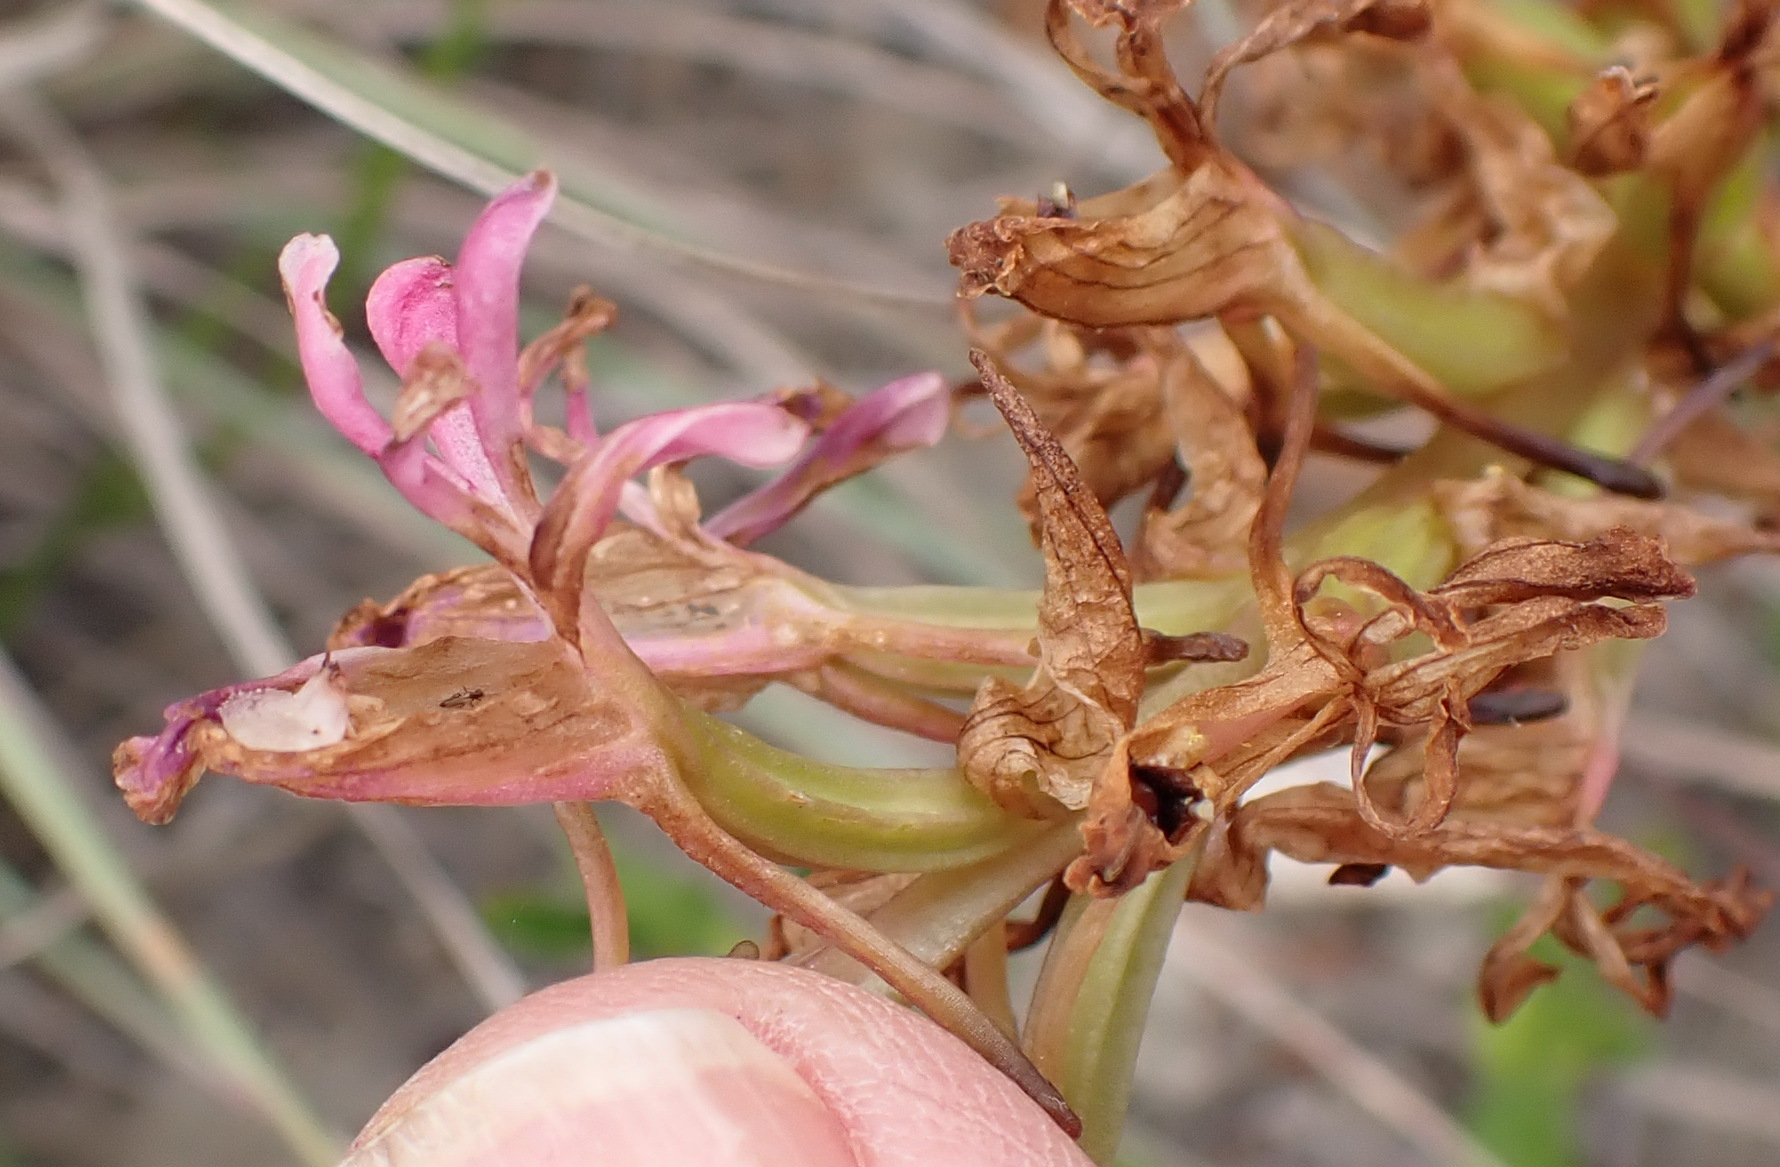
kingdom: Plantae
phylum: Tracheophyta
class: Liliopsida
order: Asparagales
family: Orchidaceae
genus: Satyrium
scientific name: Satyrium erectum
